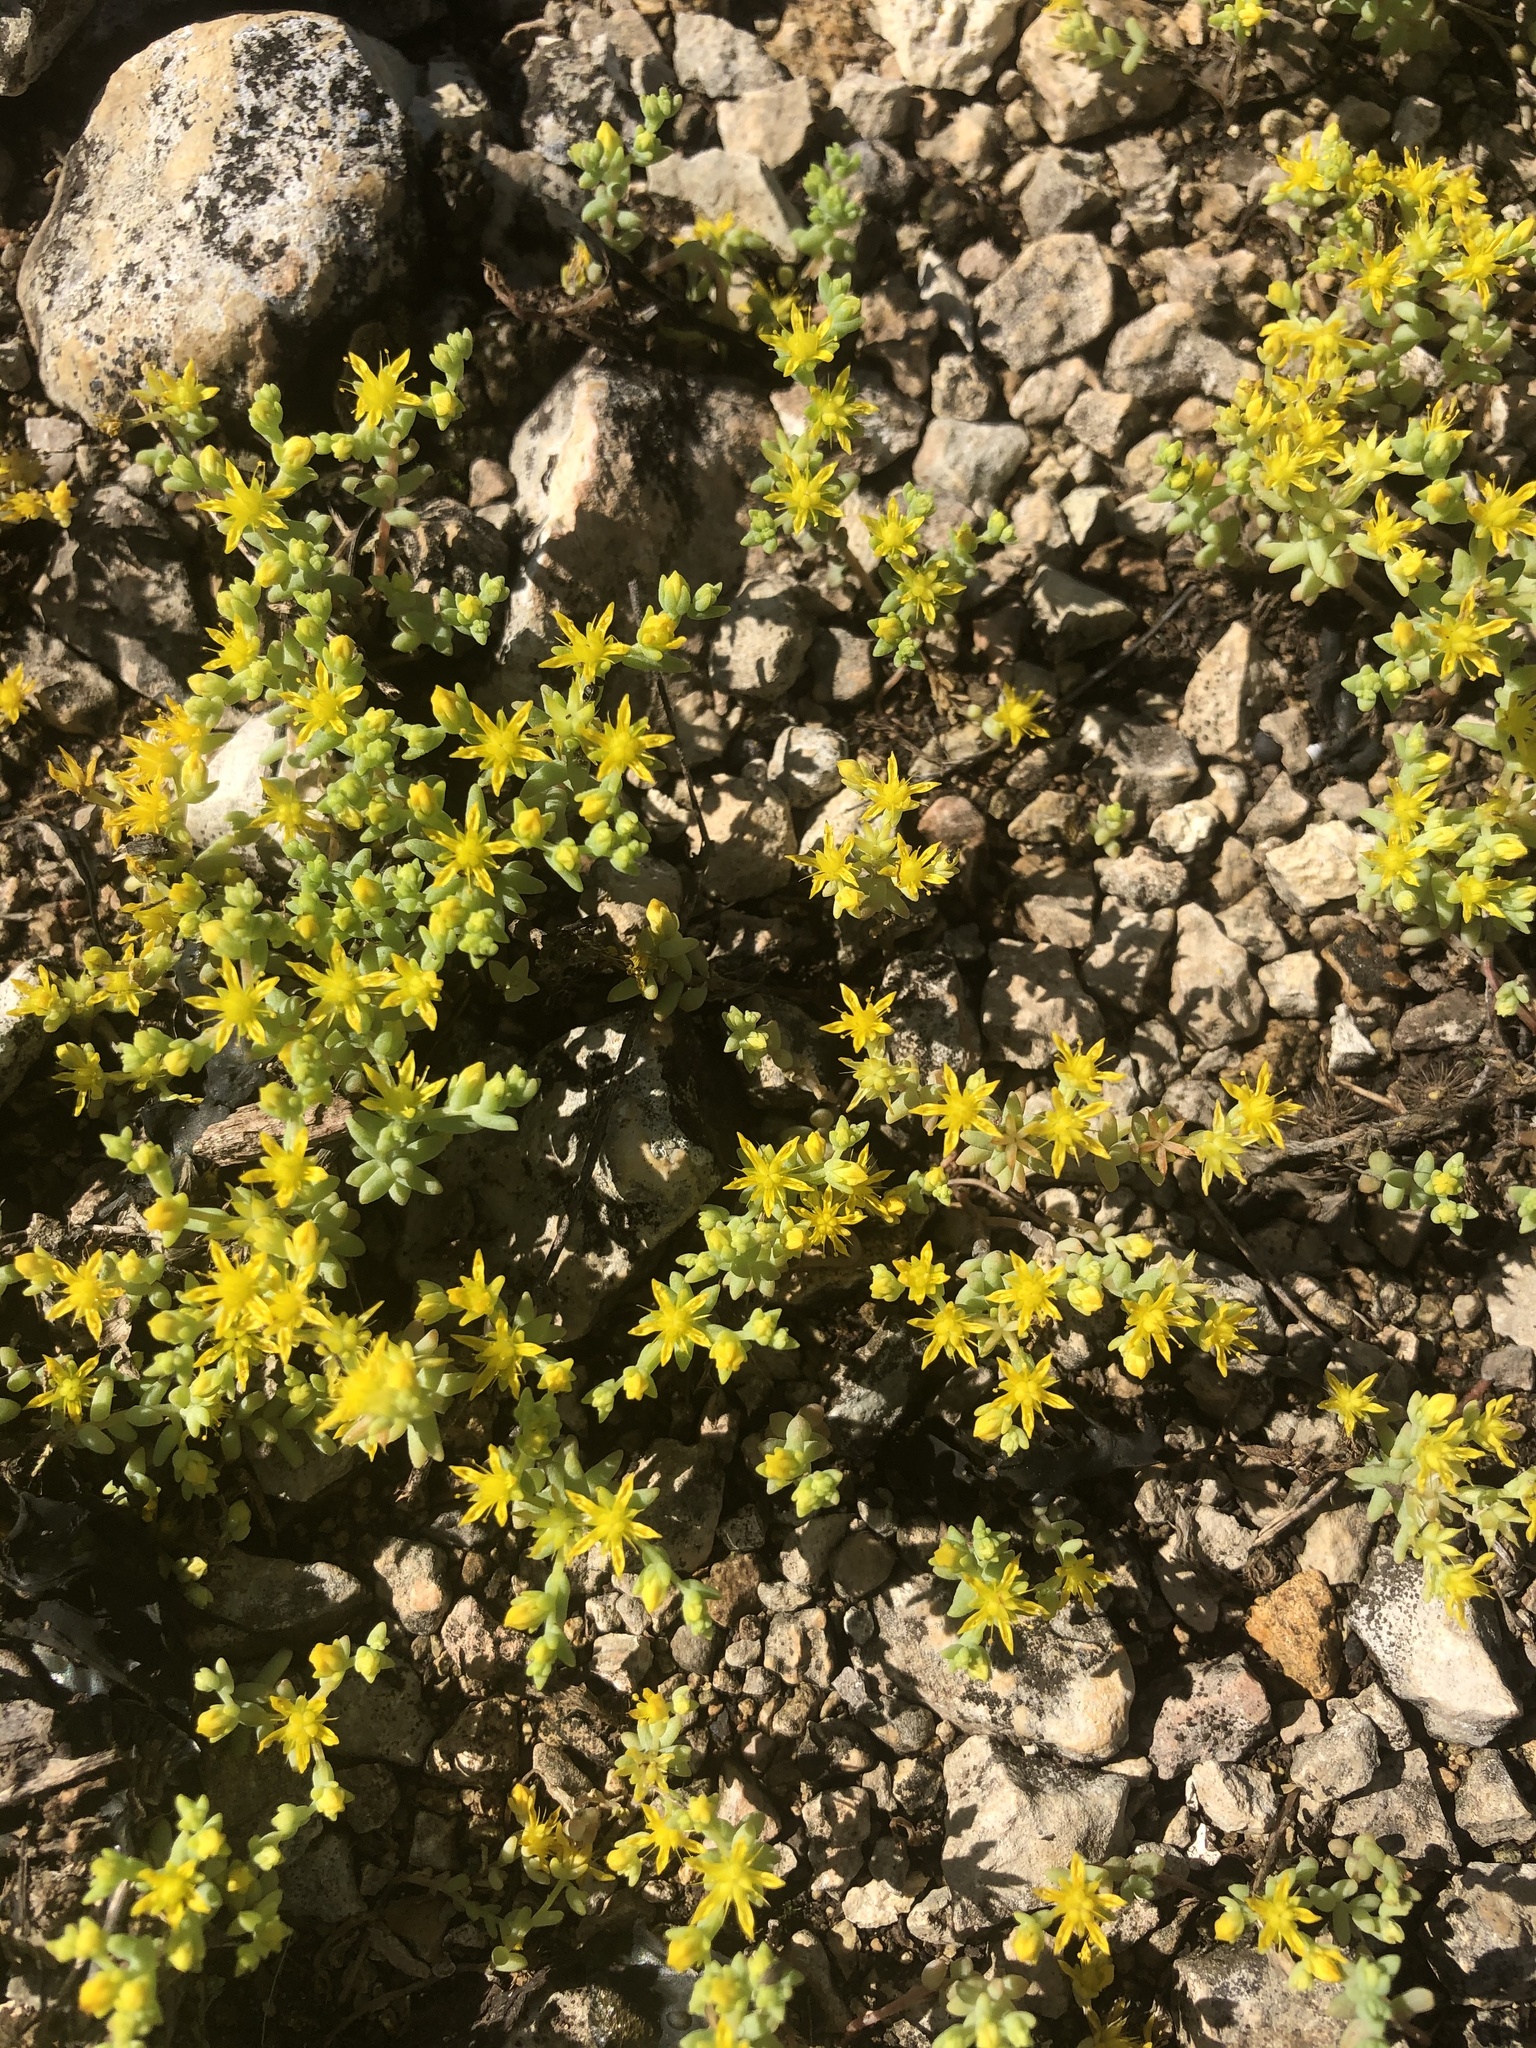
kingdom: Plantae
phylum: Tracheophyta
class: Magnoliopsida
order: Saxifragales
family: Crassulaceae
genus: Sedum
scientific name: Sedum nuttallii
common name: Yellow stonecrop
